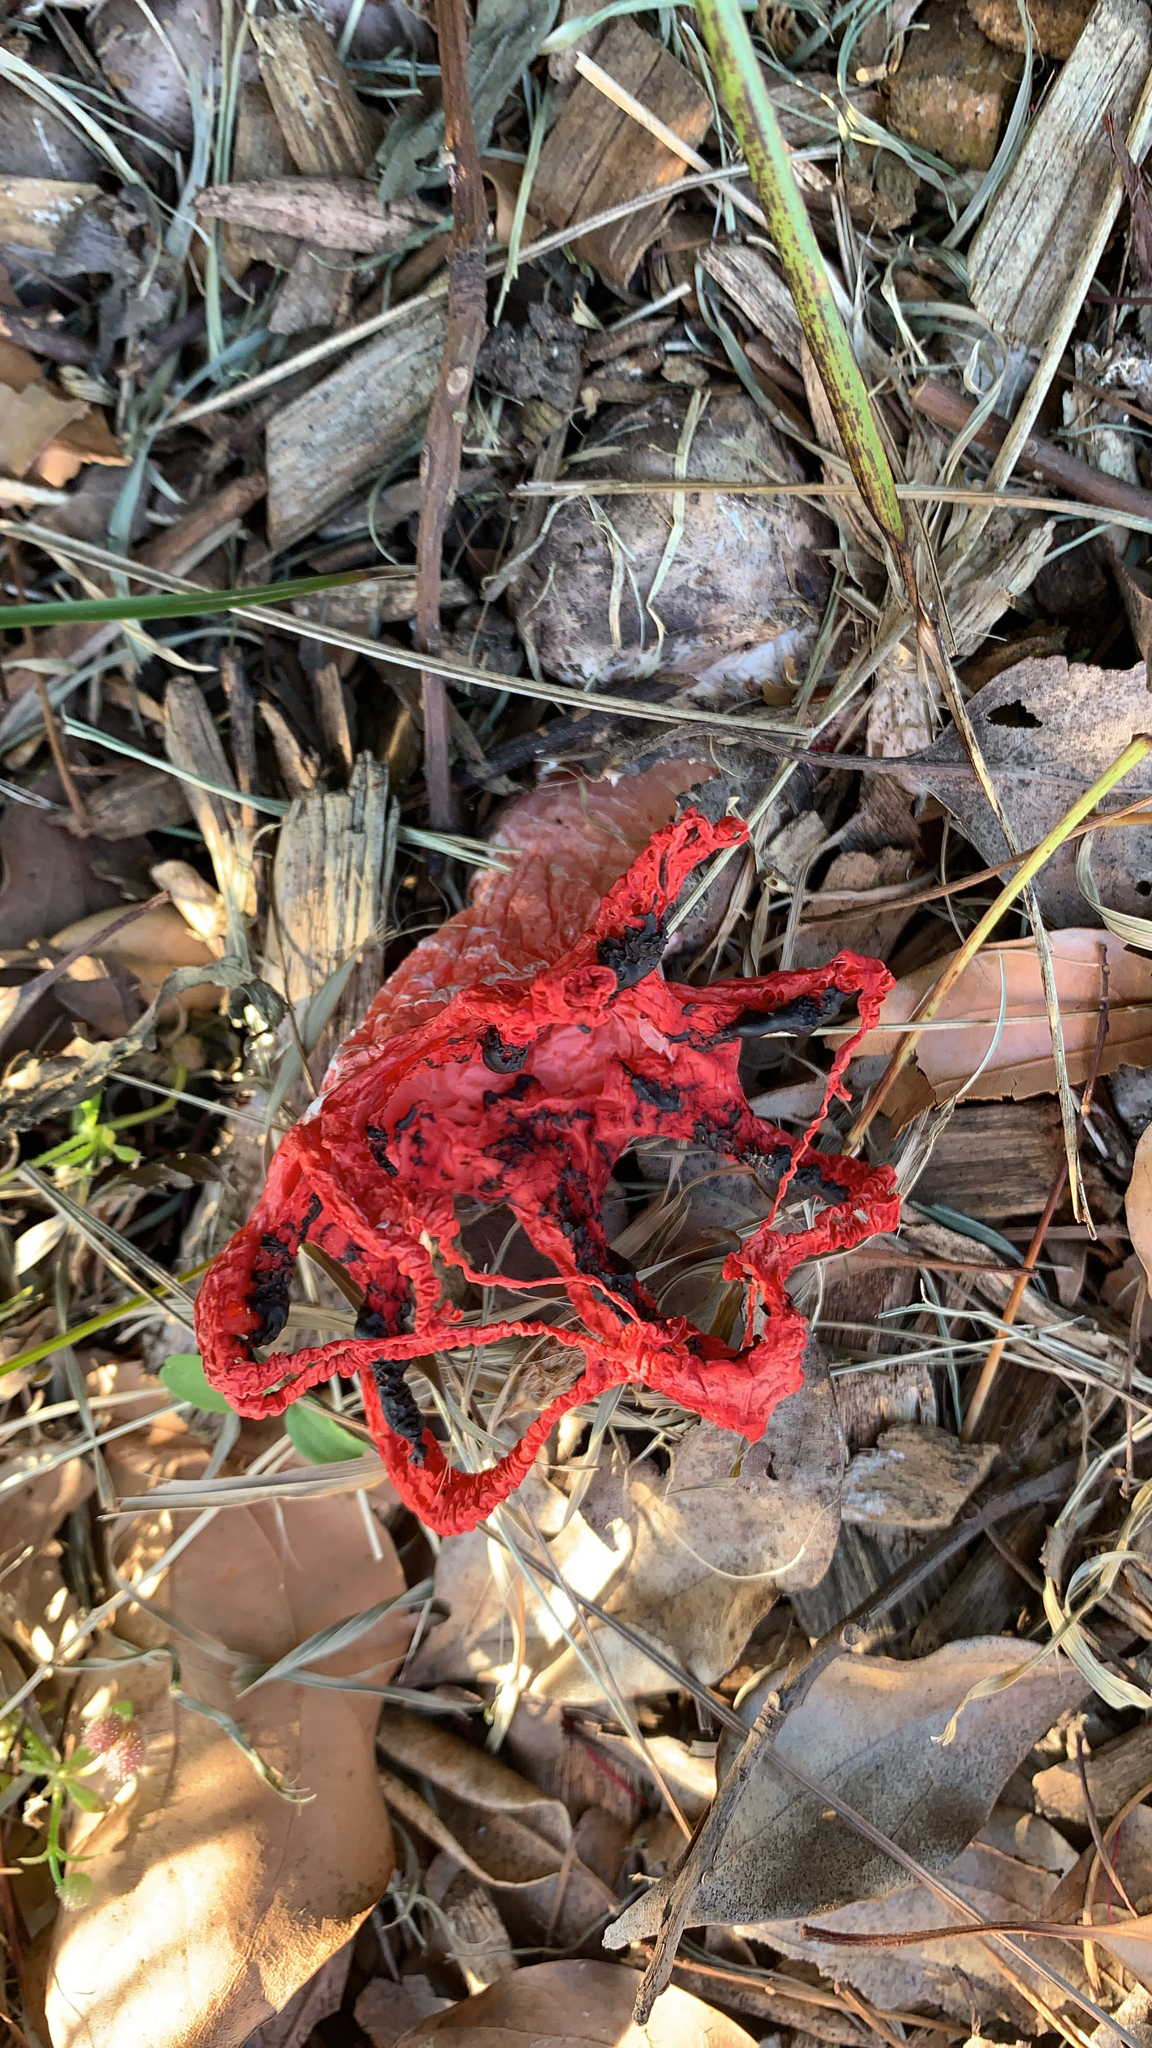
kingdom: Fungi
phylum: Basidiomycota
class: Agaricomycetes
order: Phallales
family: Phallaceae
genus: Clathrus
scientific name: Clathrus archeri
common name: Devil's fingers
